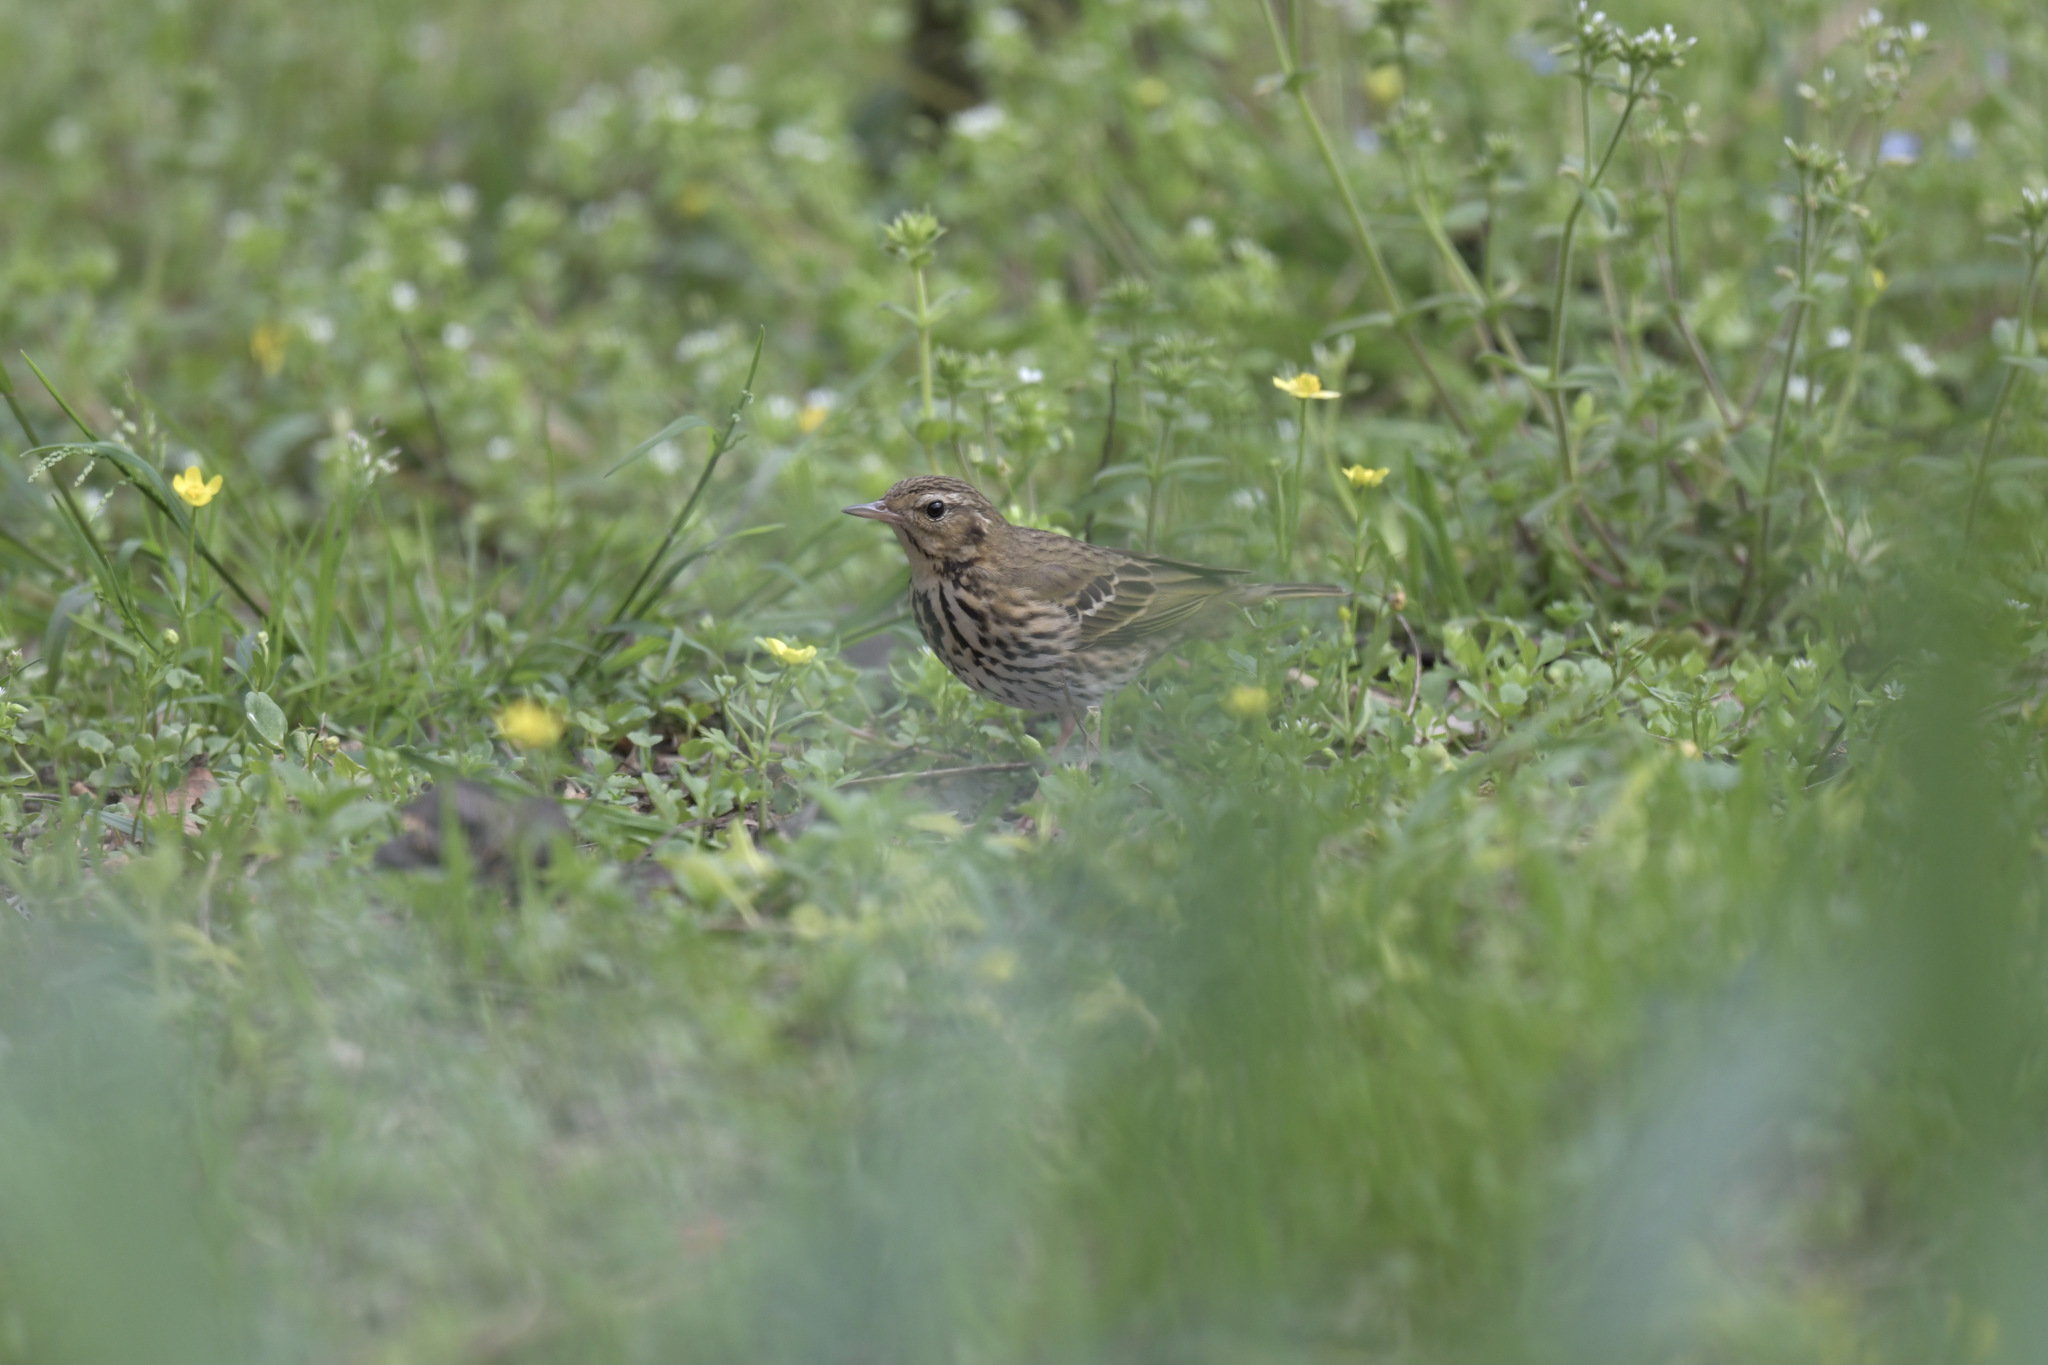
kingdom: Animalia
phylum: Chordata
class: Aves
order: Passeriformes
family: Motacillidae
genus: Anthus
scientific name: Anthus hodgsoni
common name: Olive-backed pipit
